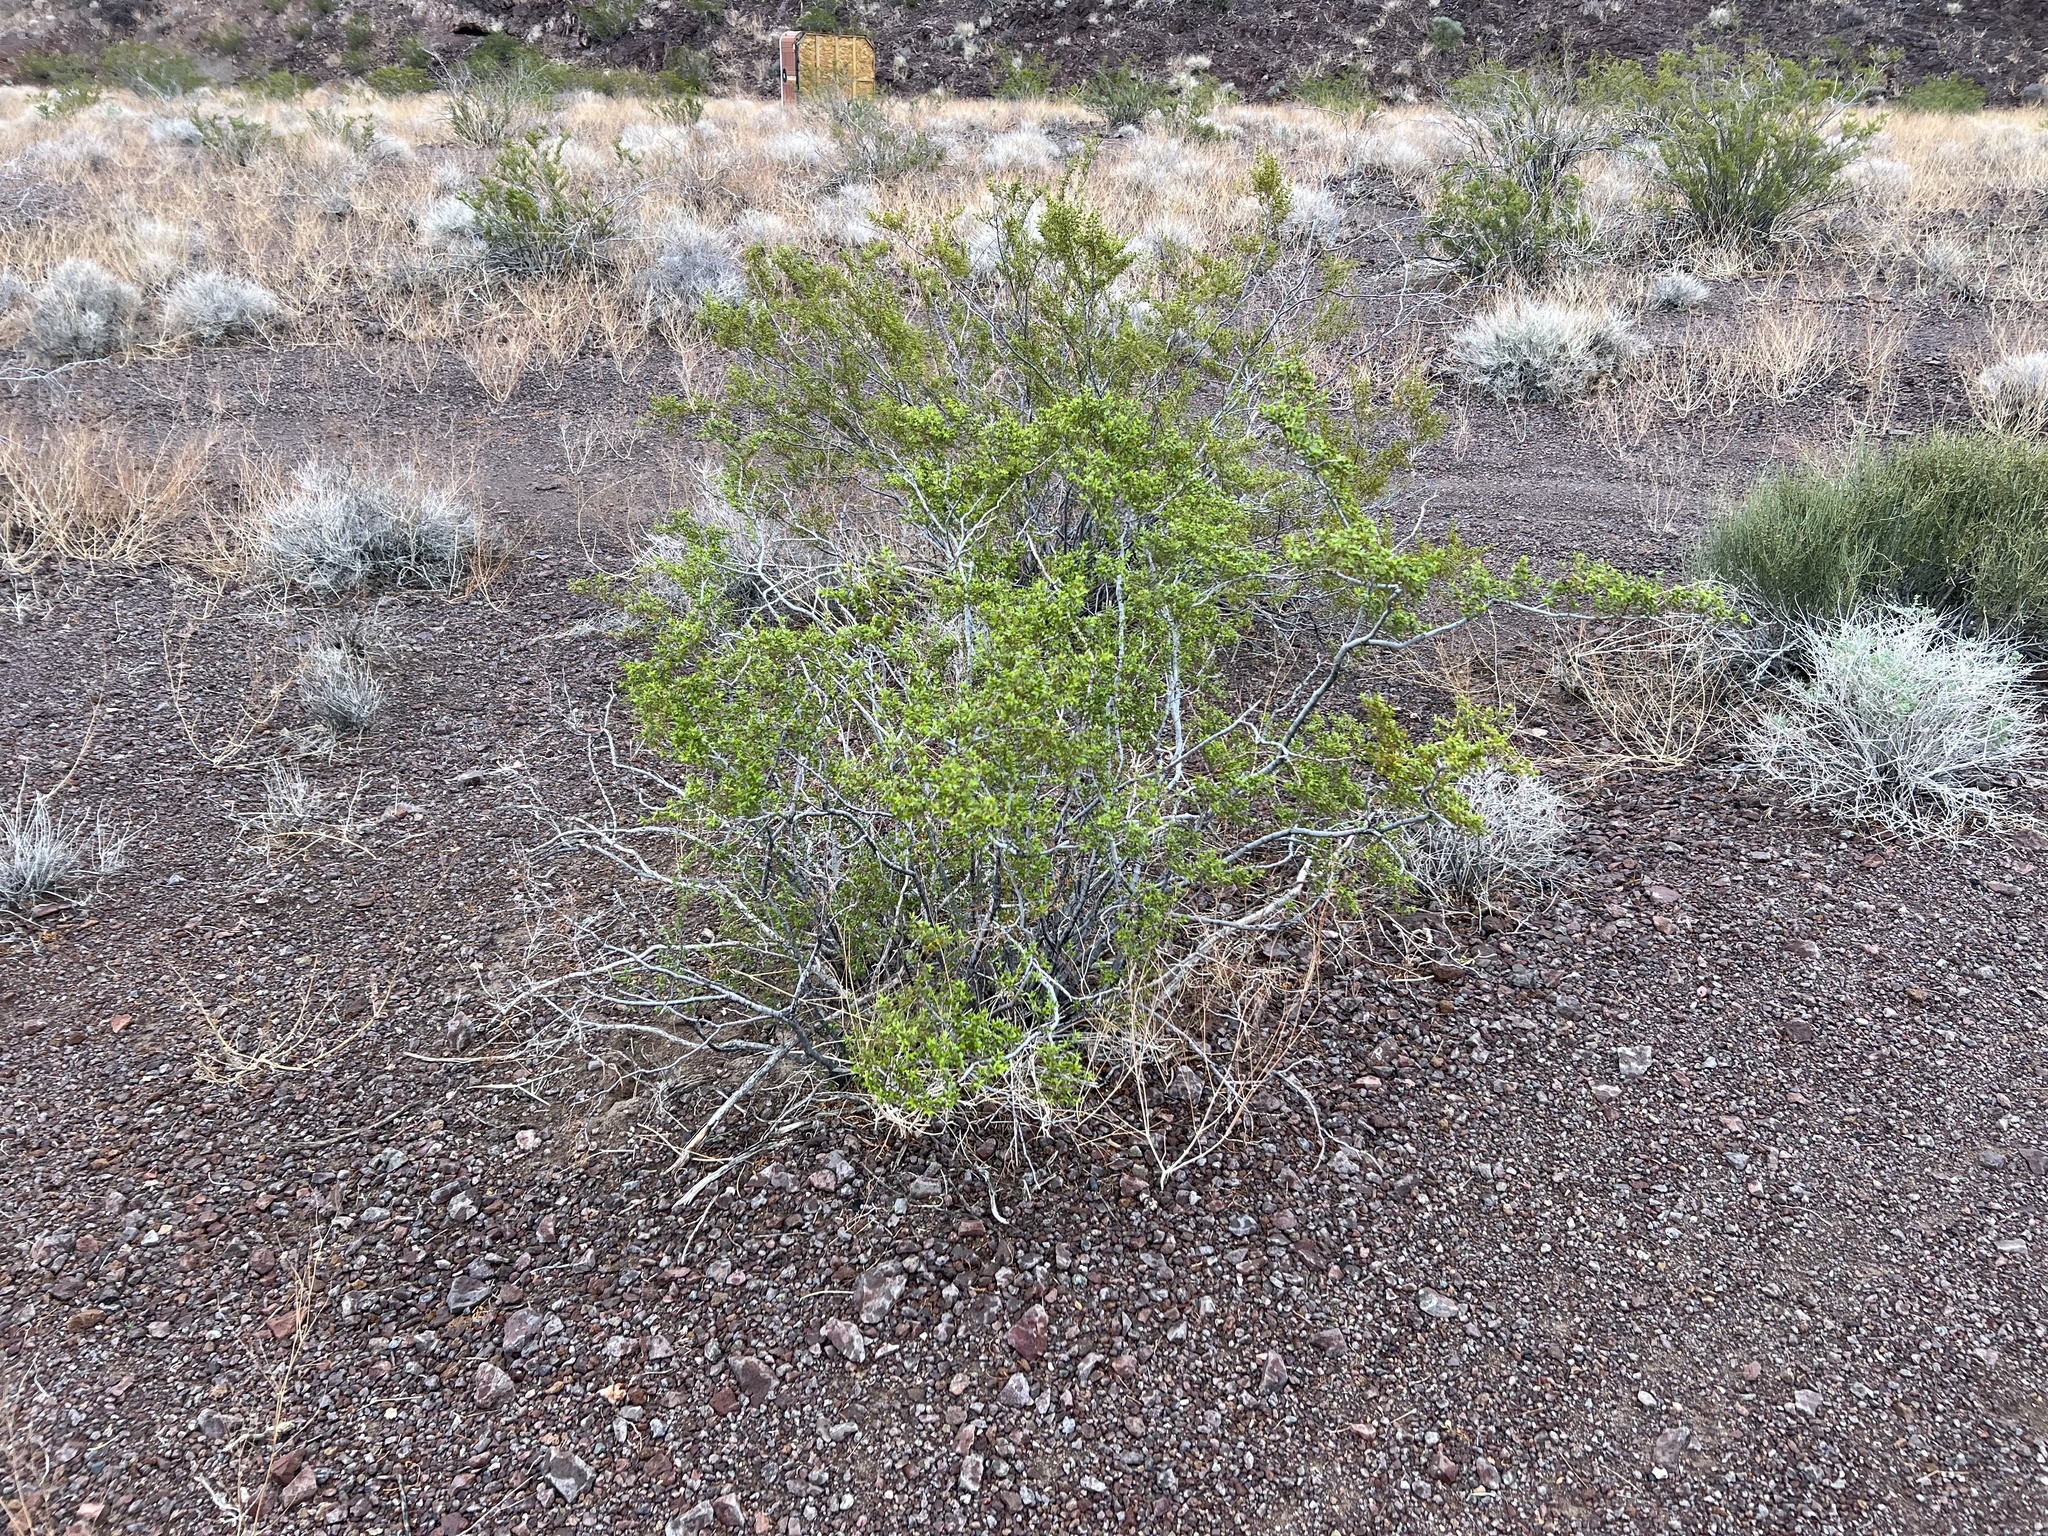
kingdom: Plantae
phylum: Tracheophyta
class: Magnoliopsida
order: Zygophyllales
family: Zygophyllaceae
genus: Larrea
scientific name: Larrea tridentata
